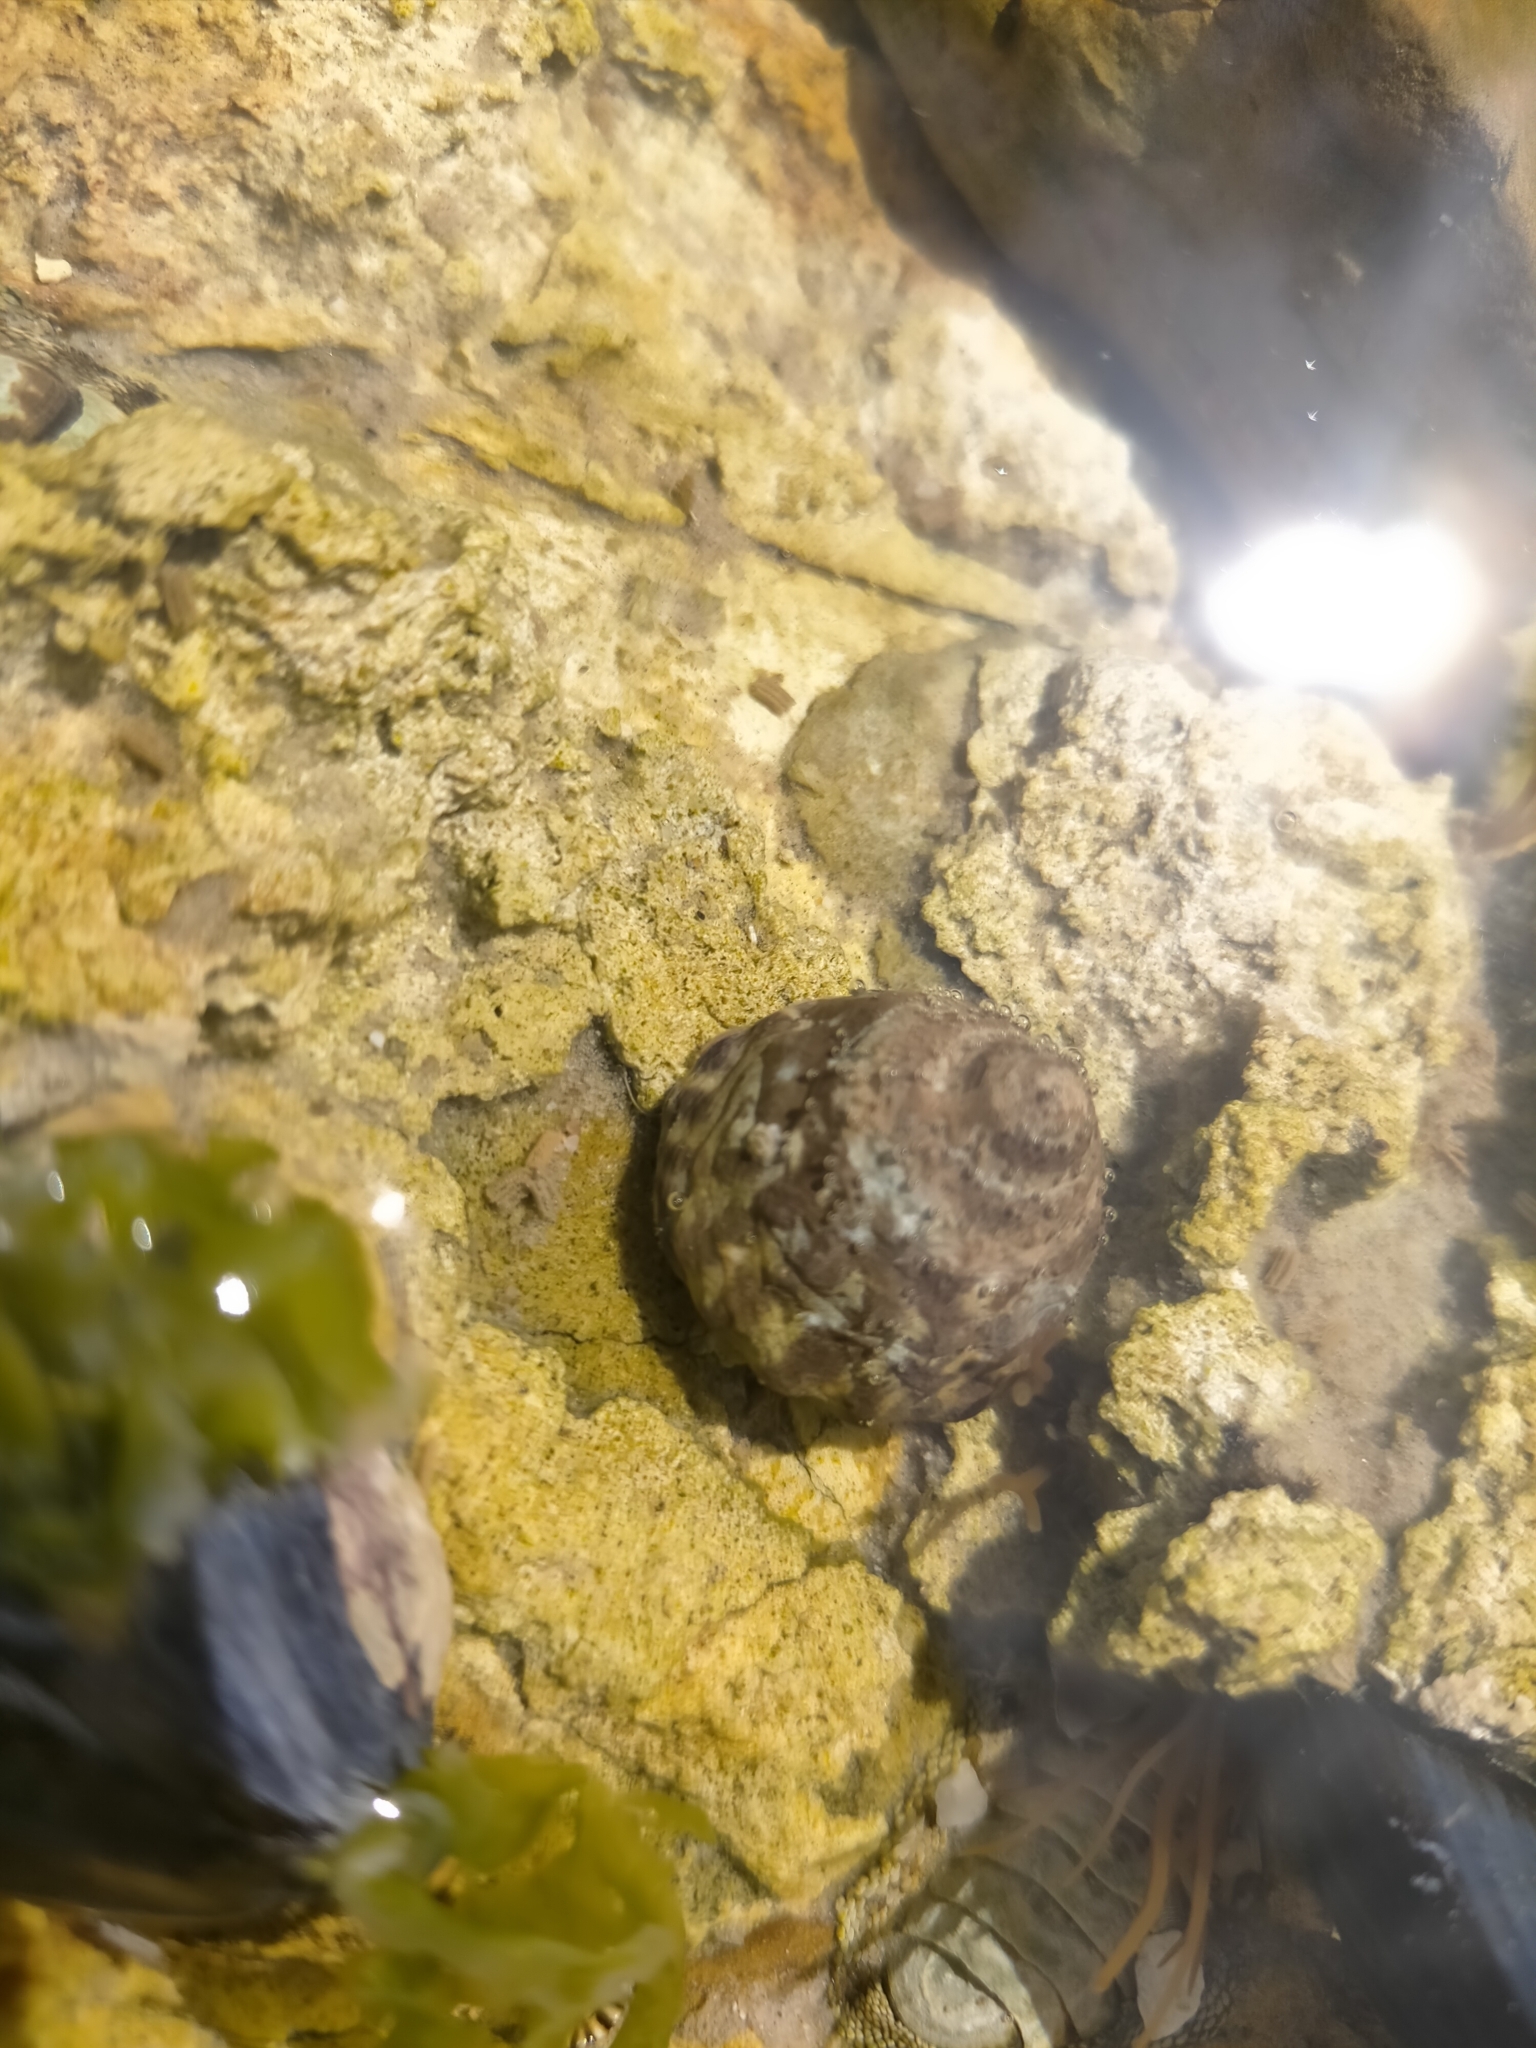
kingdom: Animalia
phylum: Mollusca
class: Gastropoda
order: Littorinimorpha
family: Littorinidae
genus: Bembicium
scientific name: Bembicium auratum
